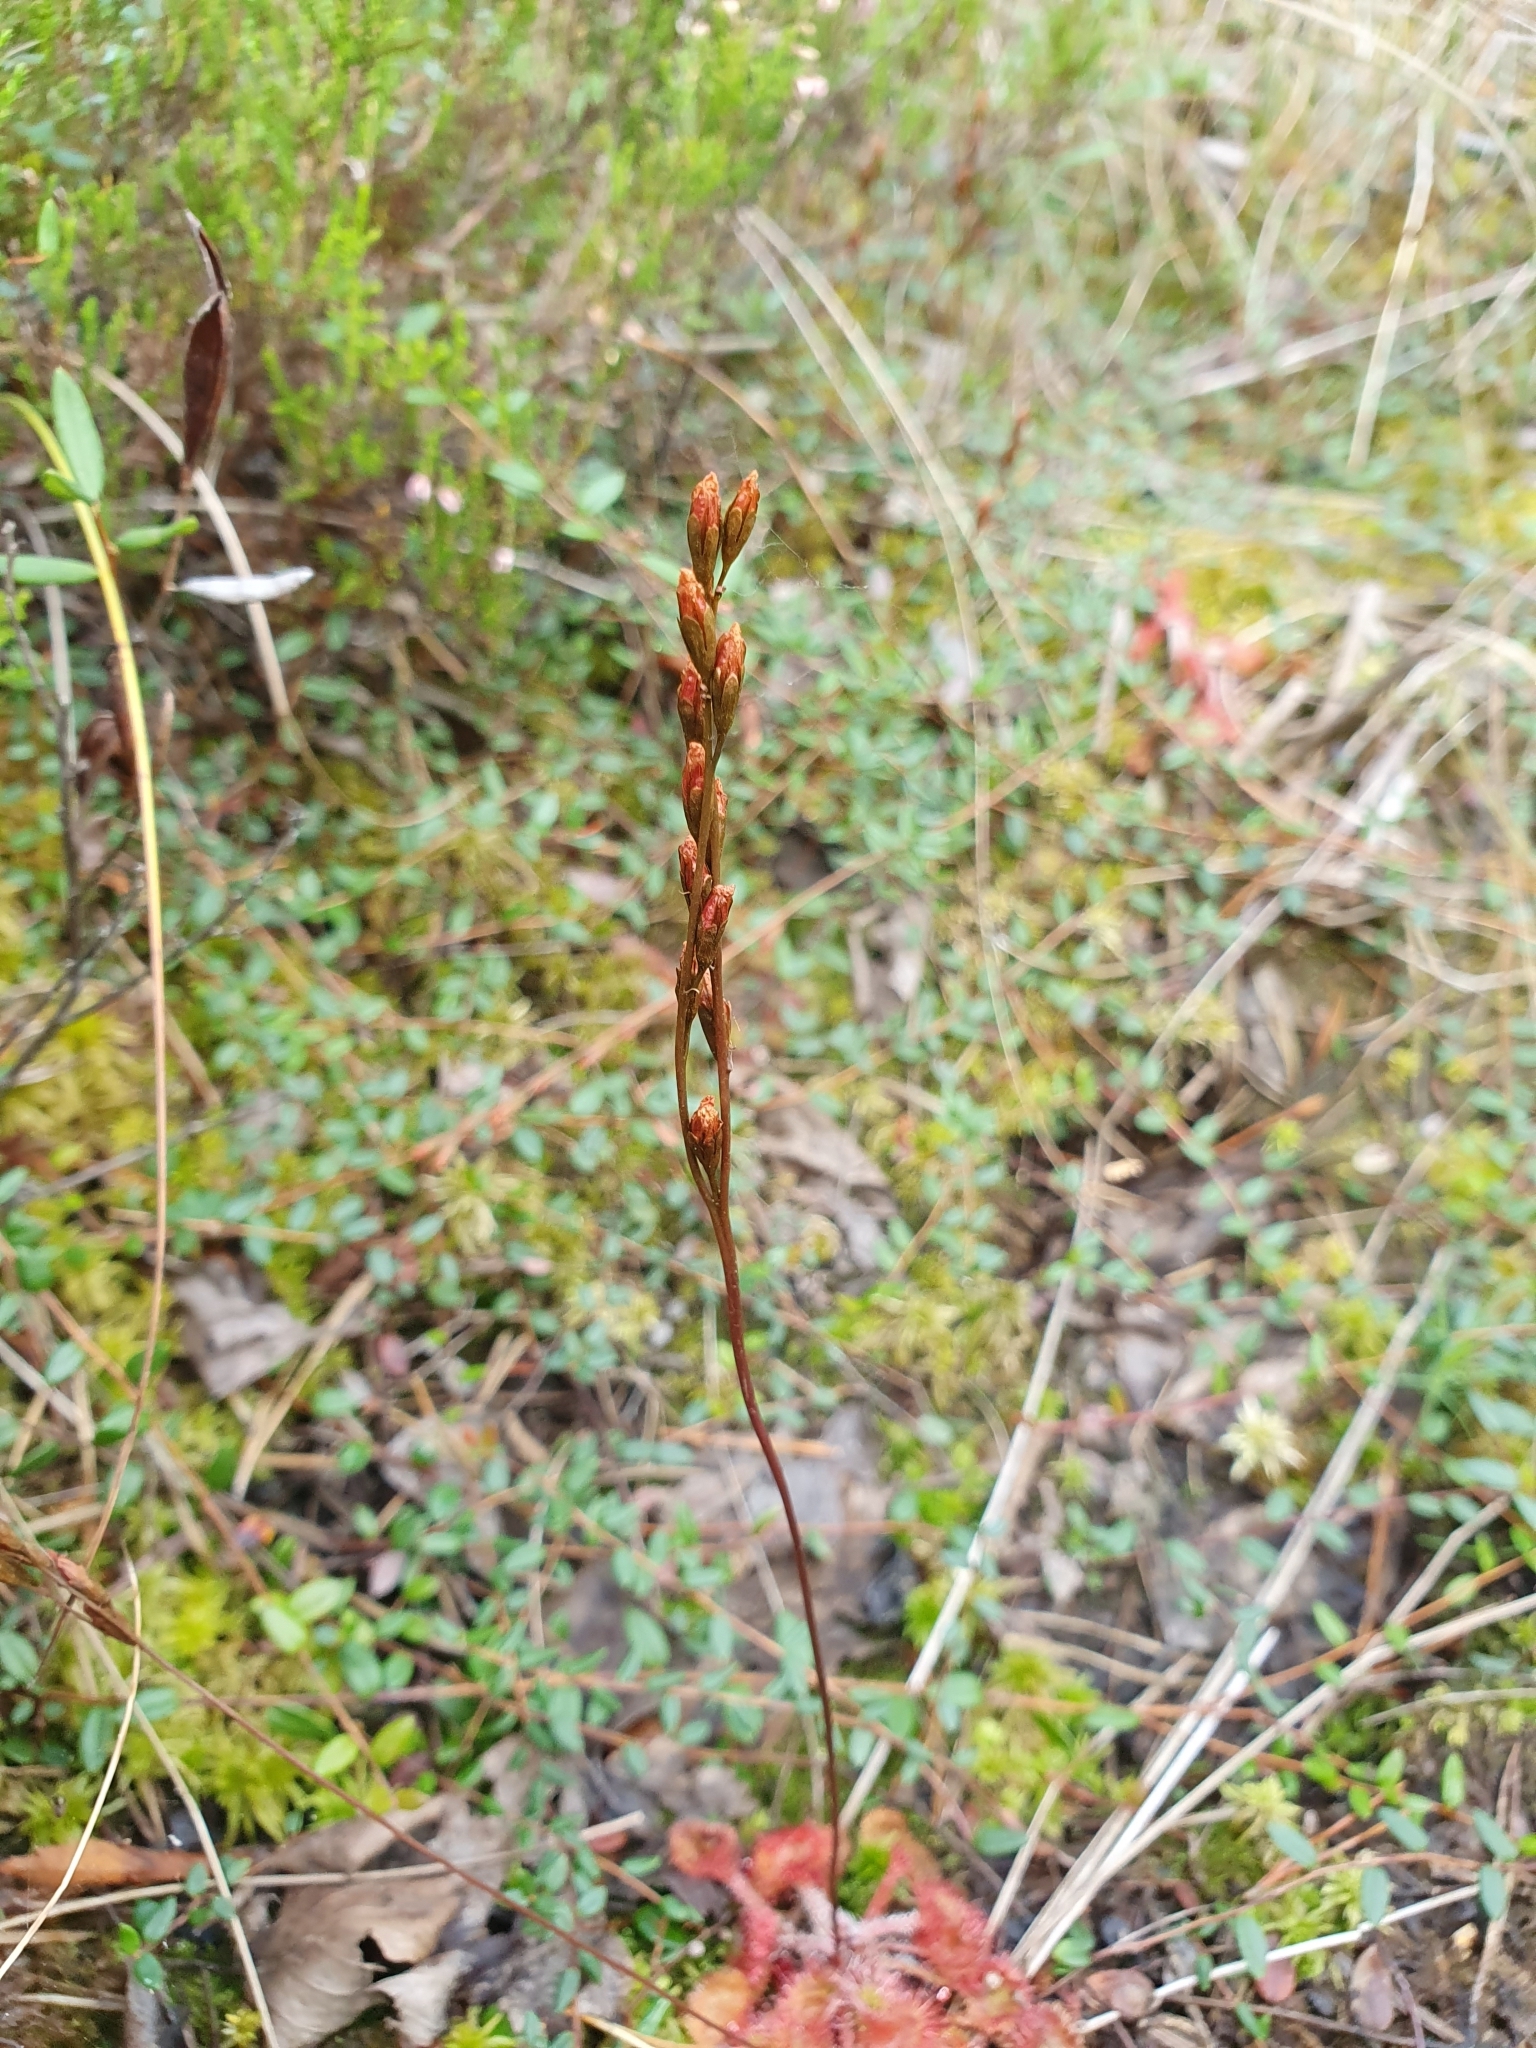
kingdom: Plantae
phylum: Tracheophyta
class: Magnoliopsida
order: Caryophyllales
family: Droseraceae
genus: Drosera
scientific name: Drosera rotundifolia
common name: Round-leaved sundew
